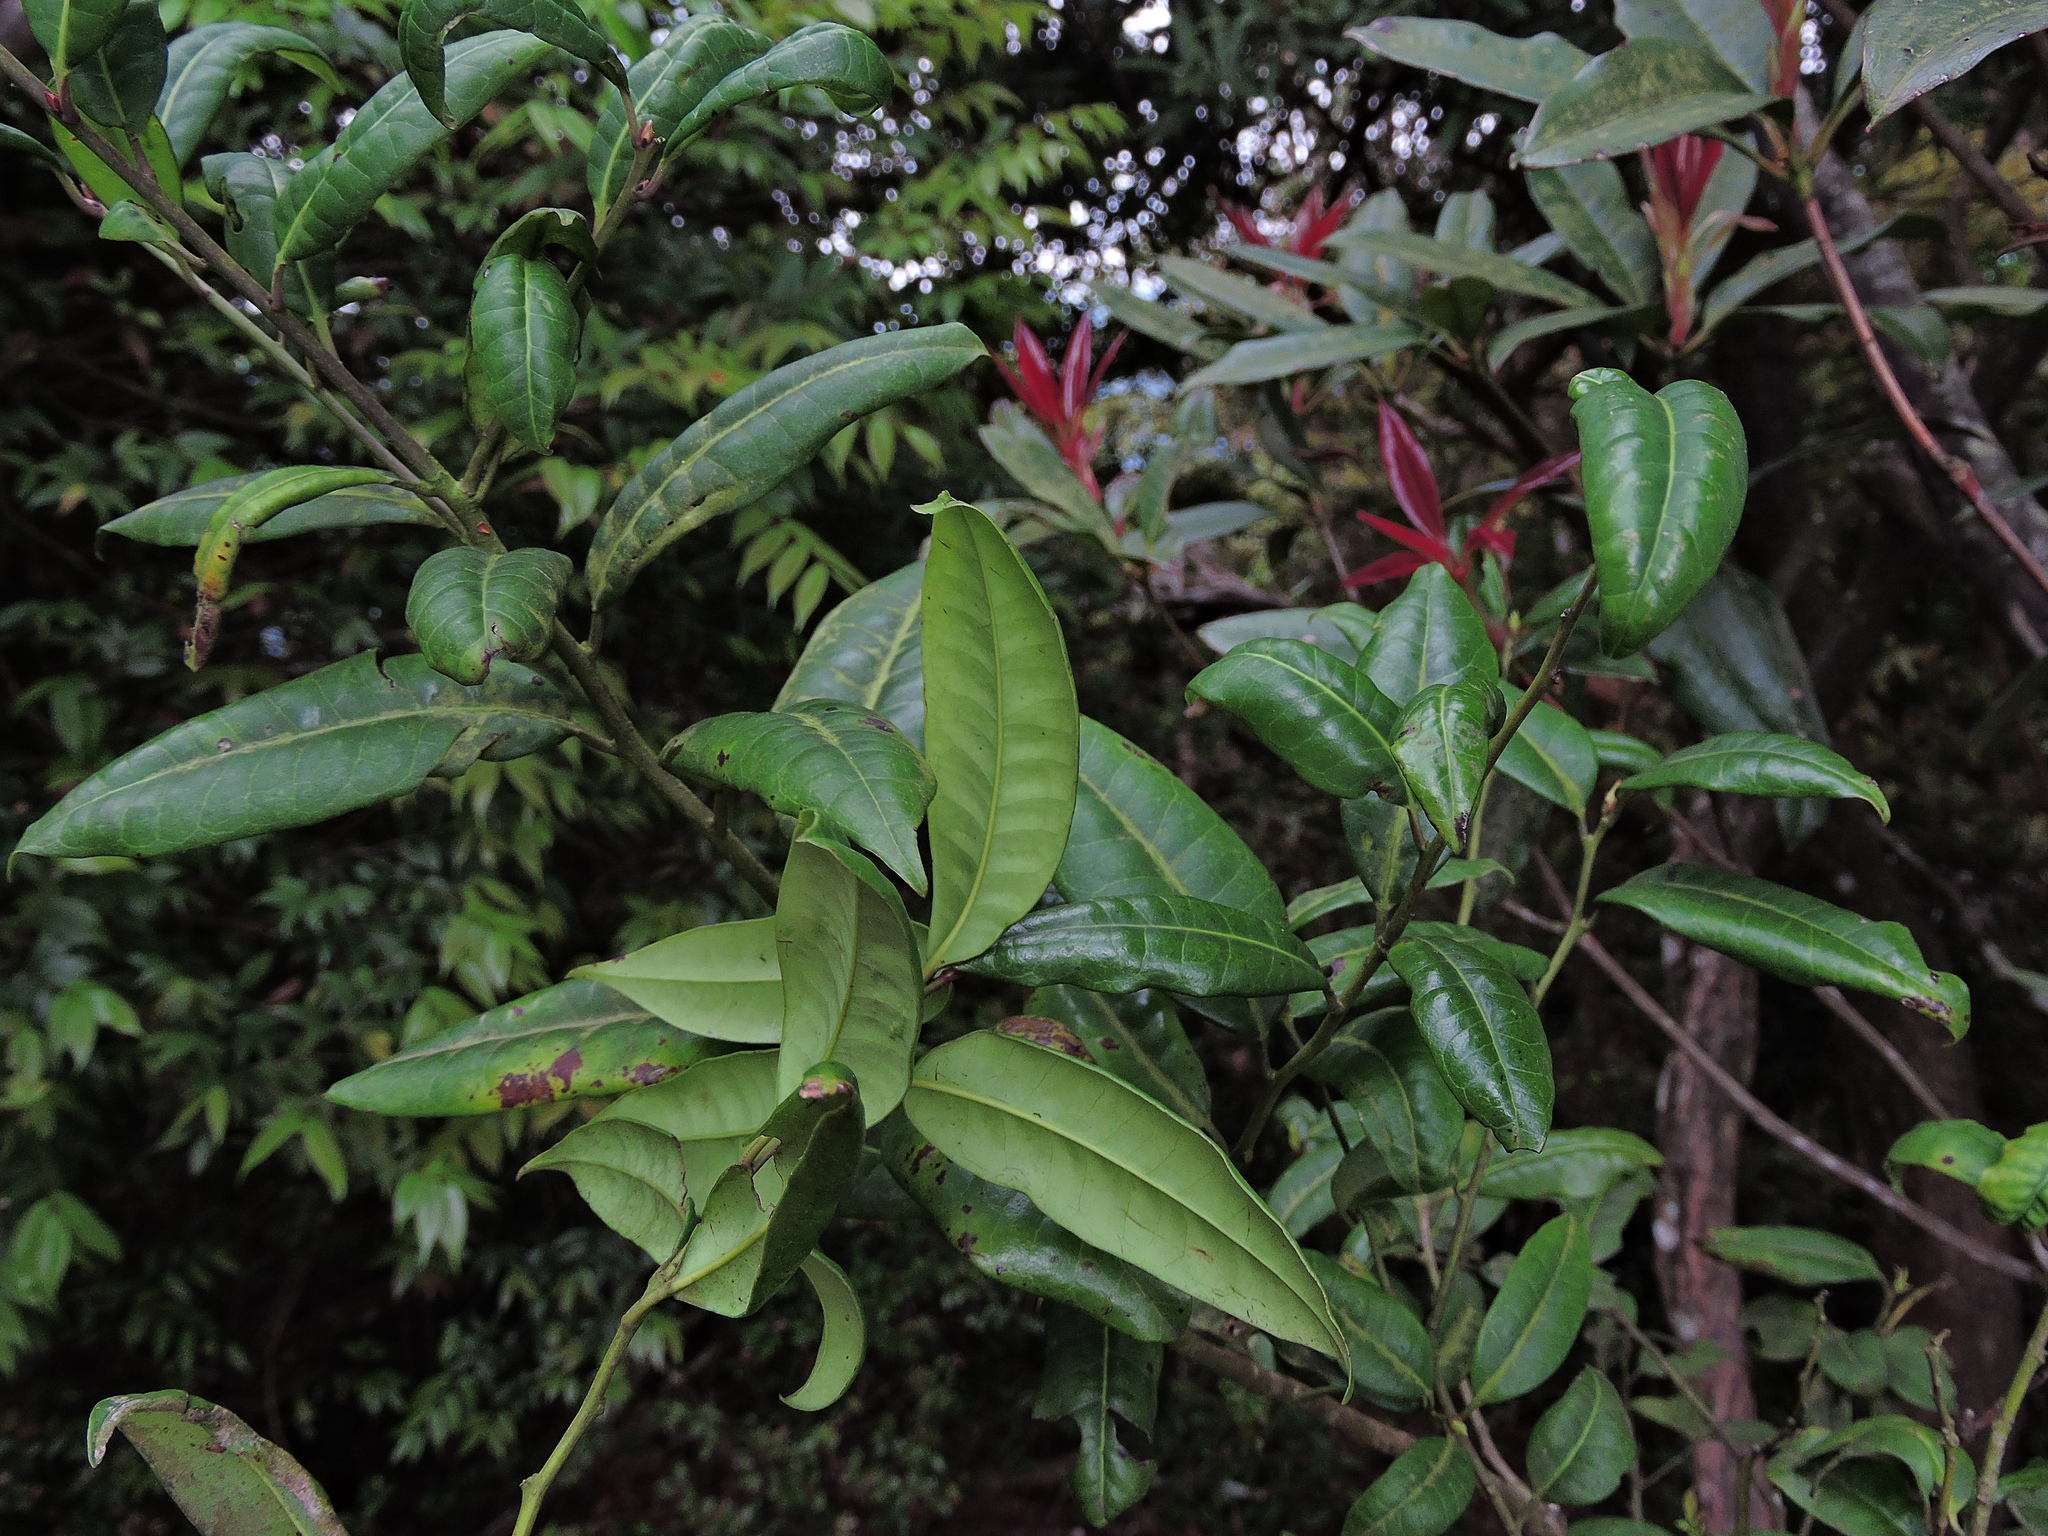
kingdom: Plantae
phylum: Tracheophyta
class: Magnoliopsida
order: Aquifoliales
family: Aquifoliaceae
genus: Ilex
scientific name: Ilex lonicerifolia
